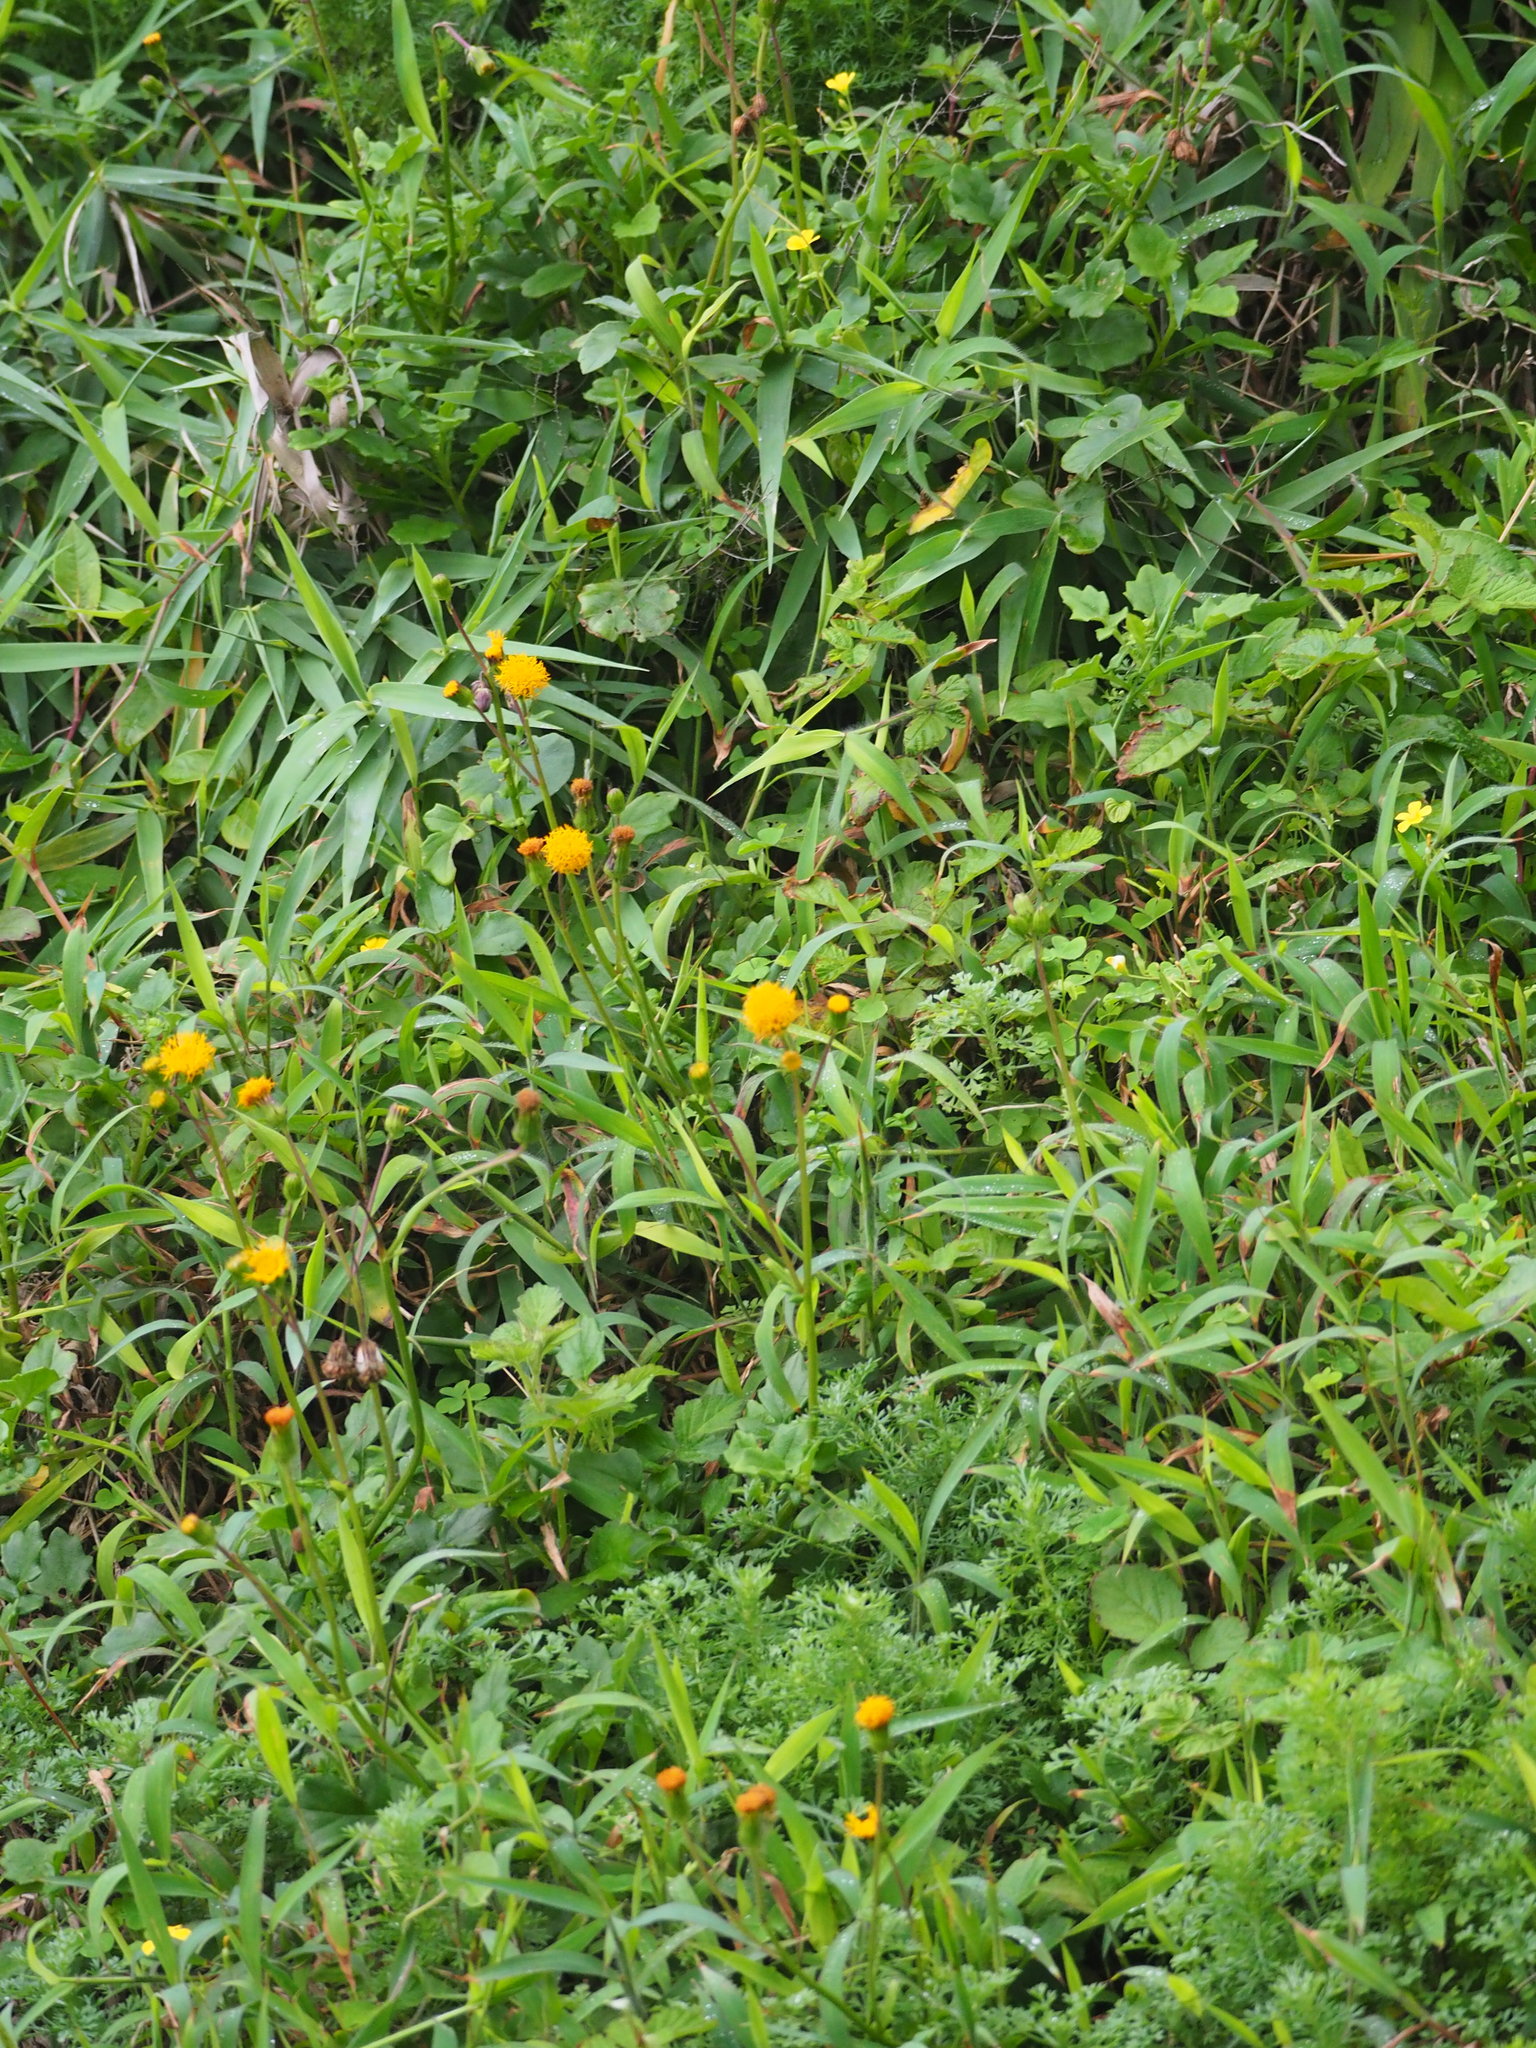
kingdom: Plantae
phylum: Tracheophyta
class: Magnoliopsida
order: Asterales
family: Asteraceae
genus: Gynura
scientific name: Gynura formosana
